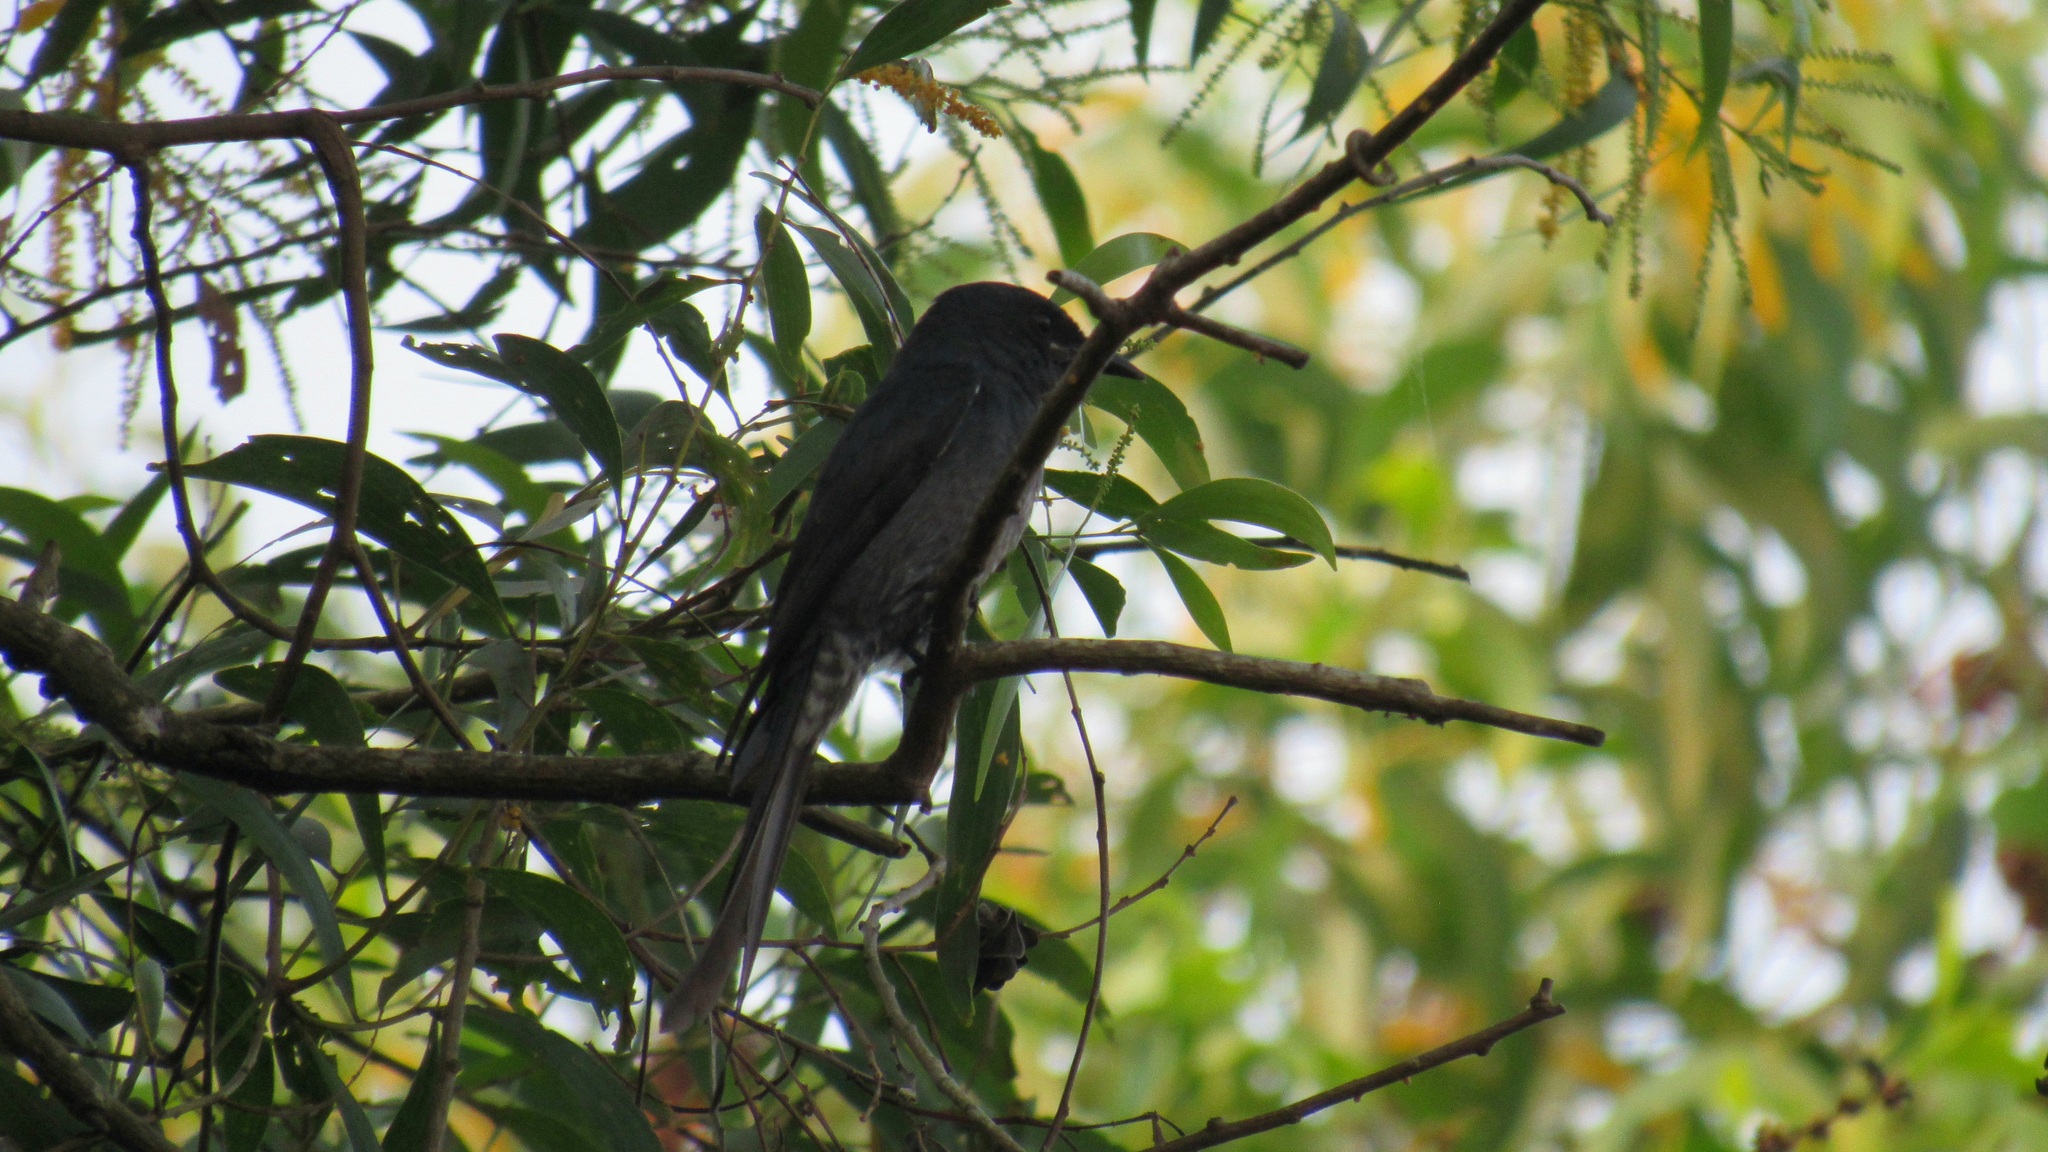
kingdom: Animalia
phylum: Chordata
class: Aves
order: Passeriformes
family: Dicruridae
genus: Dicrurus
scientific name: Dicrurus leucophaeus
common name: Ashy drongo
